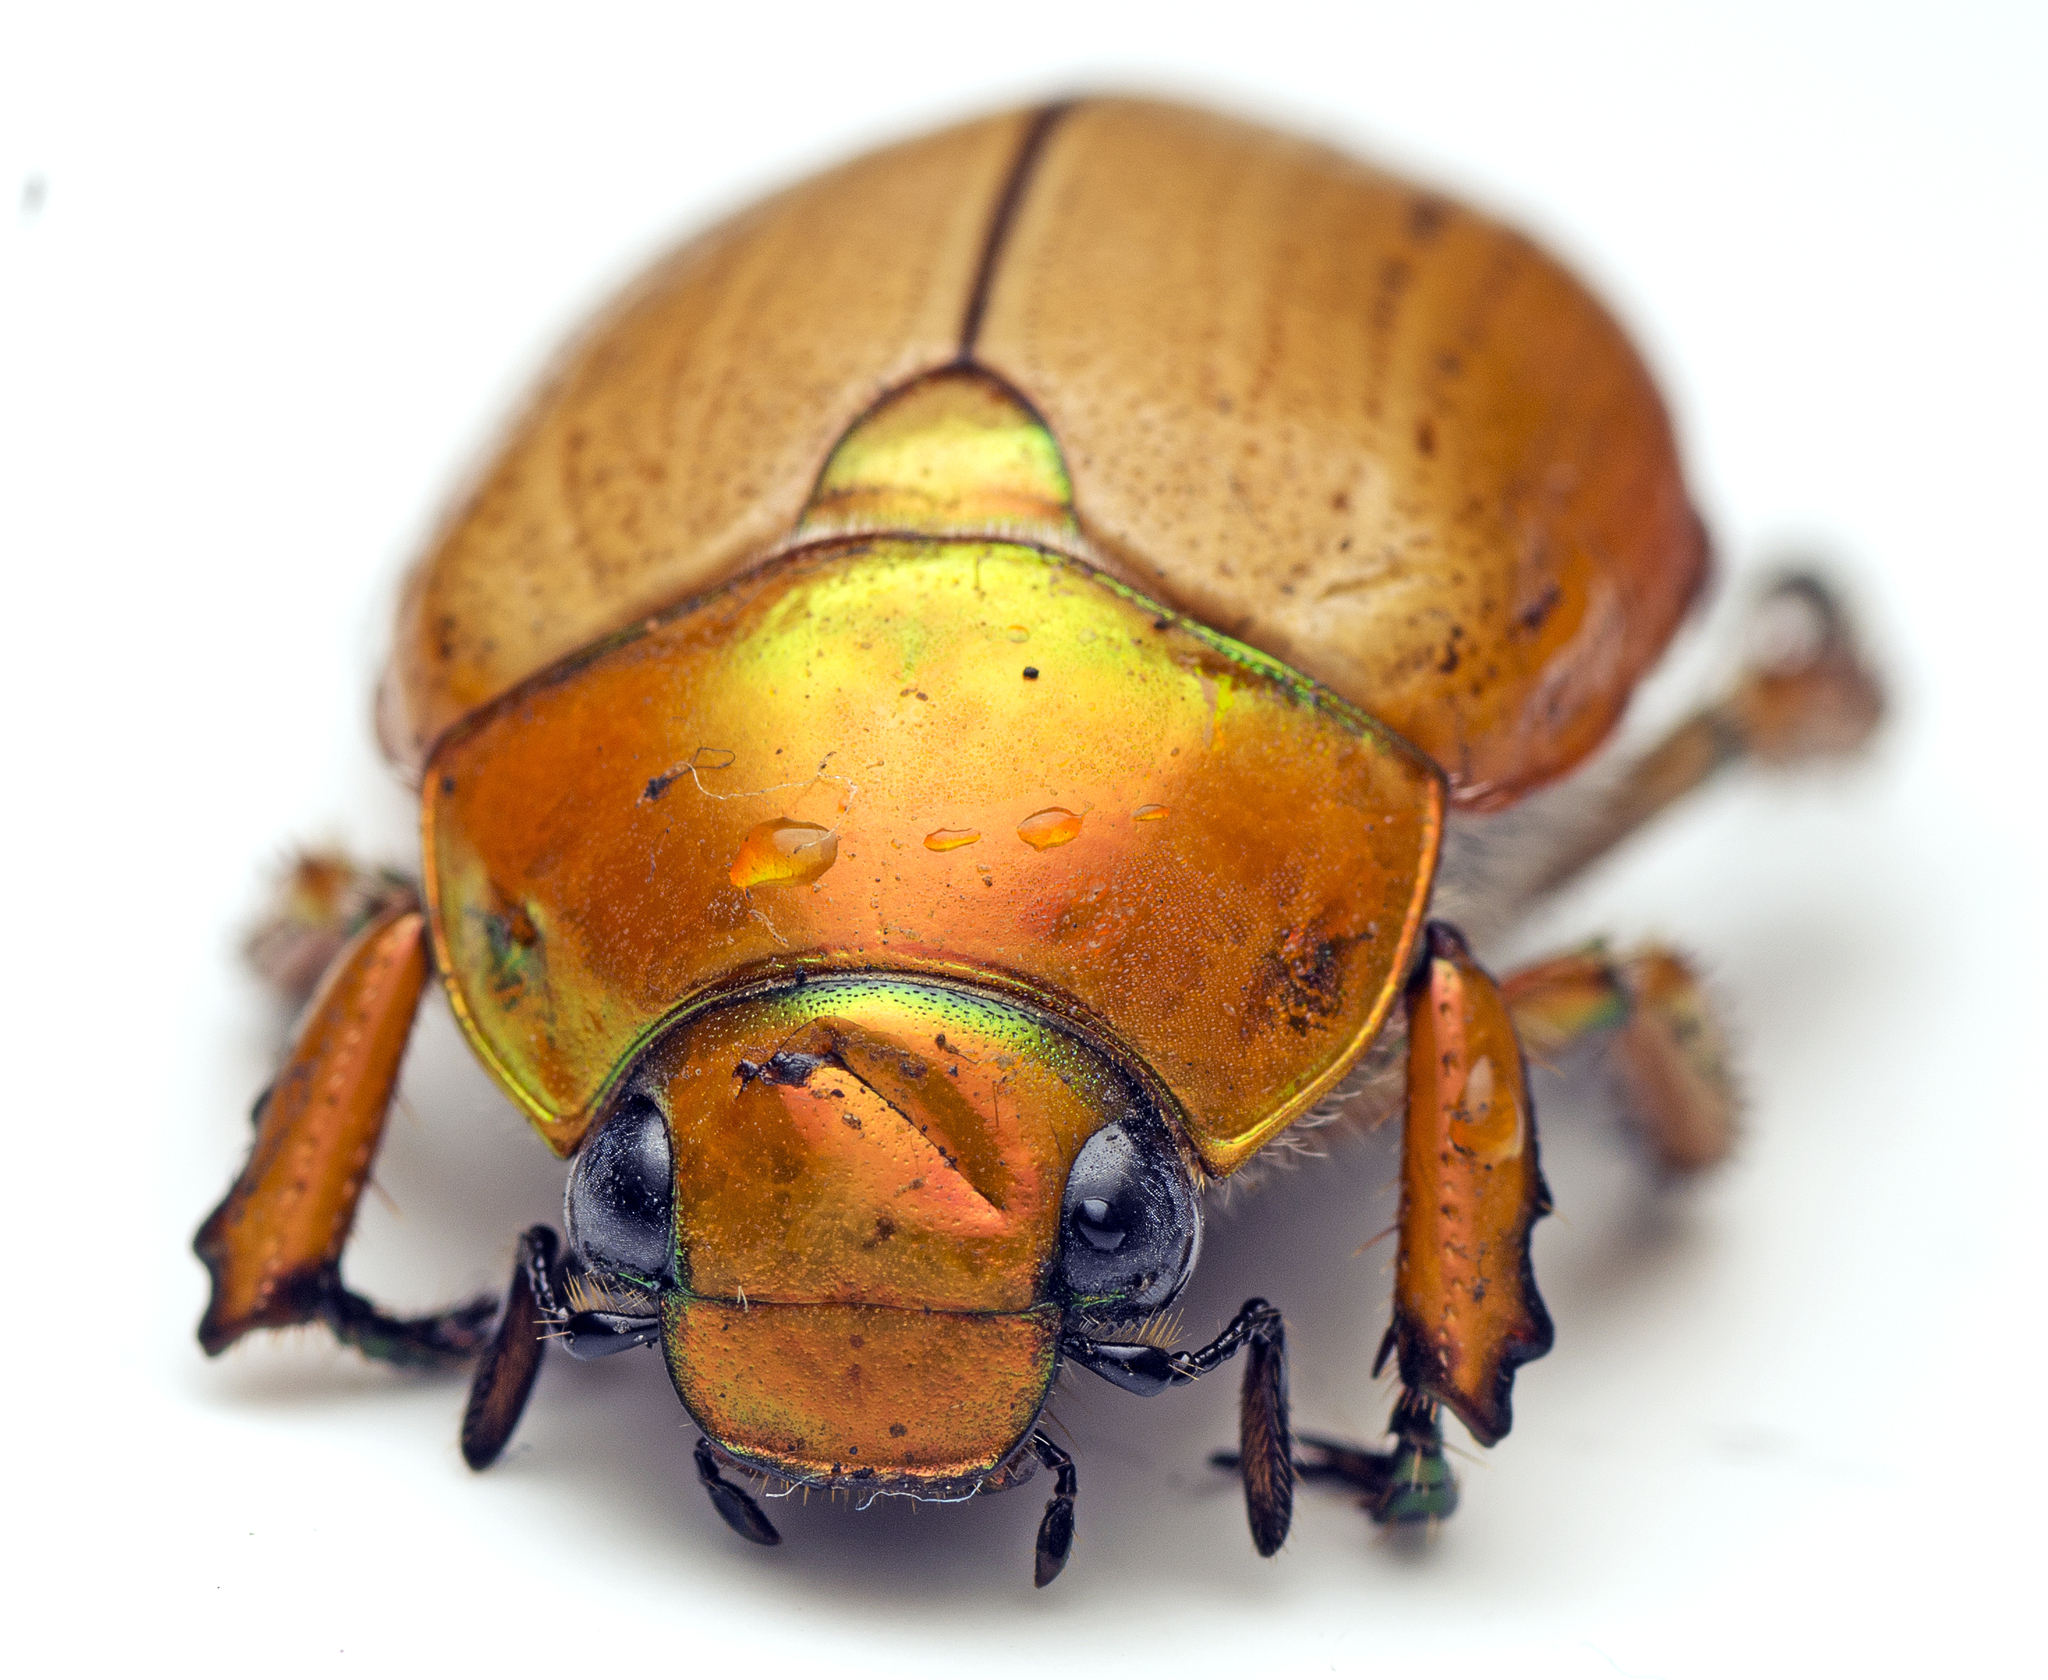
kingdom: Animalia
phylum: Arthropoda
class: Insecta
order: Coleoptera
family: Scarabaeidae
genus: Anoplognathus
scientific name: Anoplognathus brunnipennis
